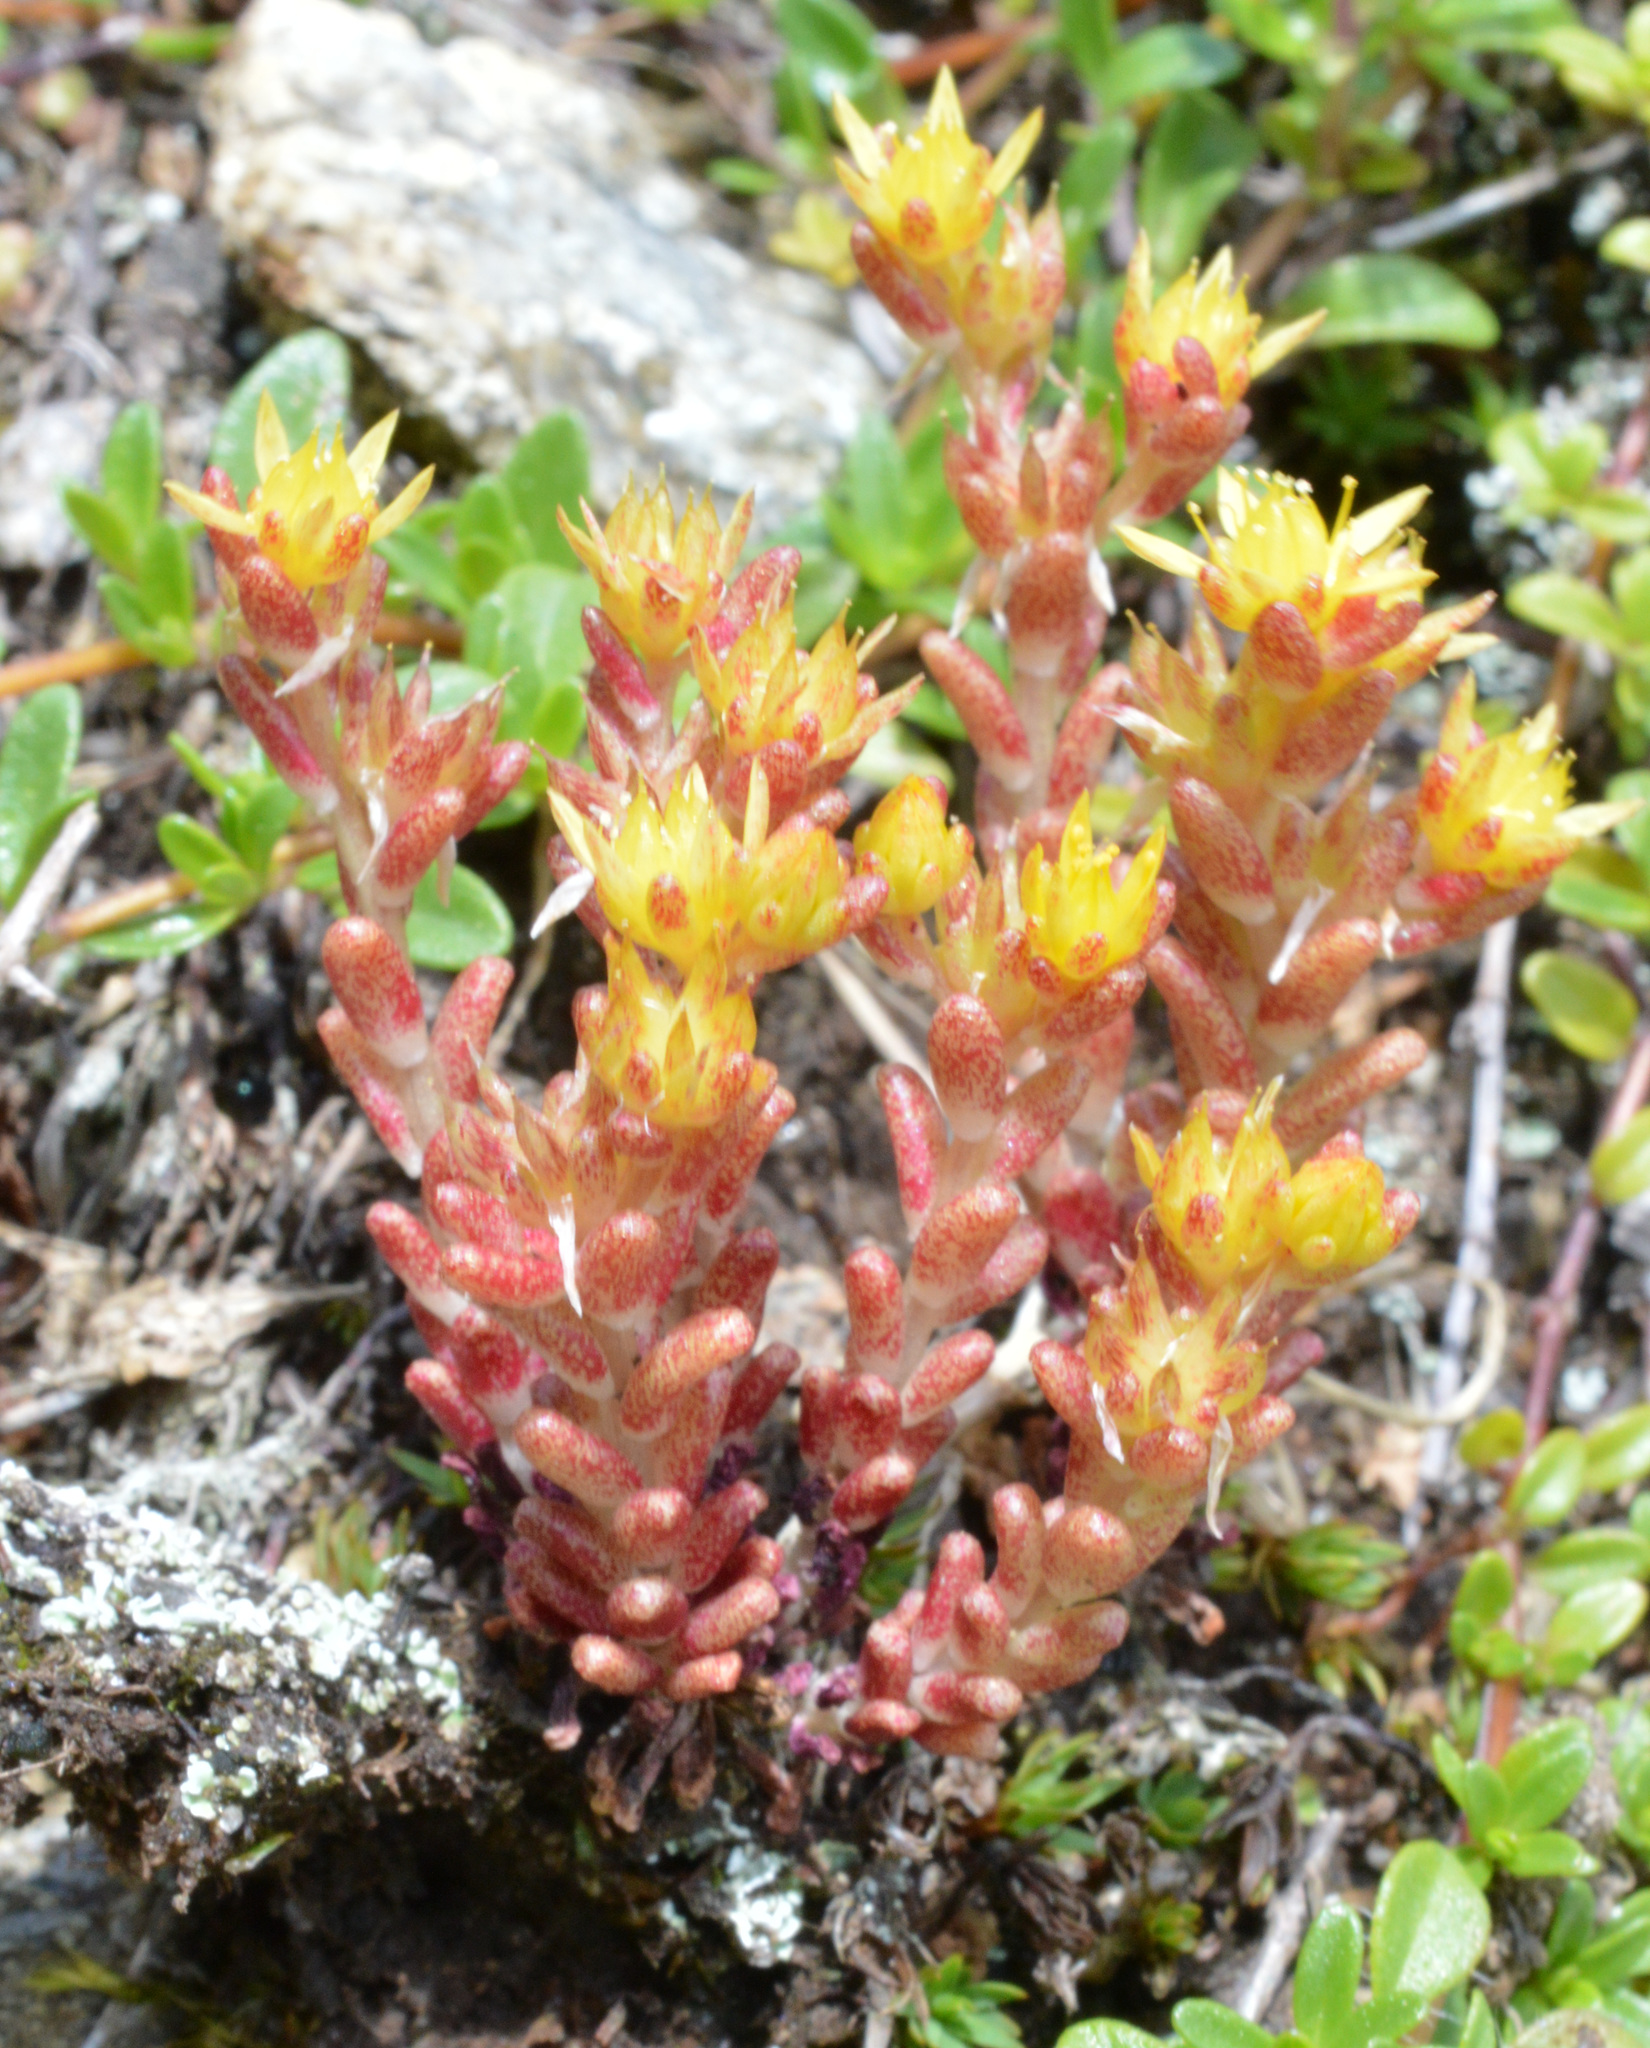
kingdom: Plantae
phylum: Tracheophyta
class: Magnoliopsida
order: Saxifragales
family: Crassulaceae
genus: Sedum
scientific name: Sedum annuum
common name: Annual stonecrop
